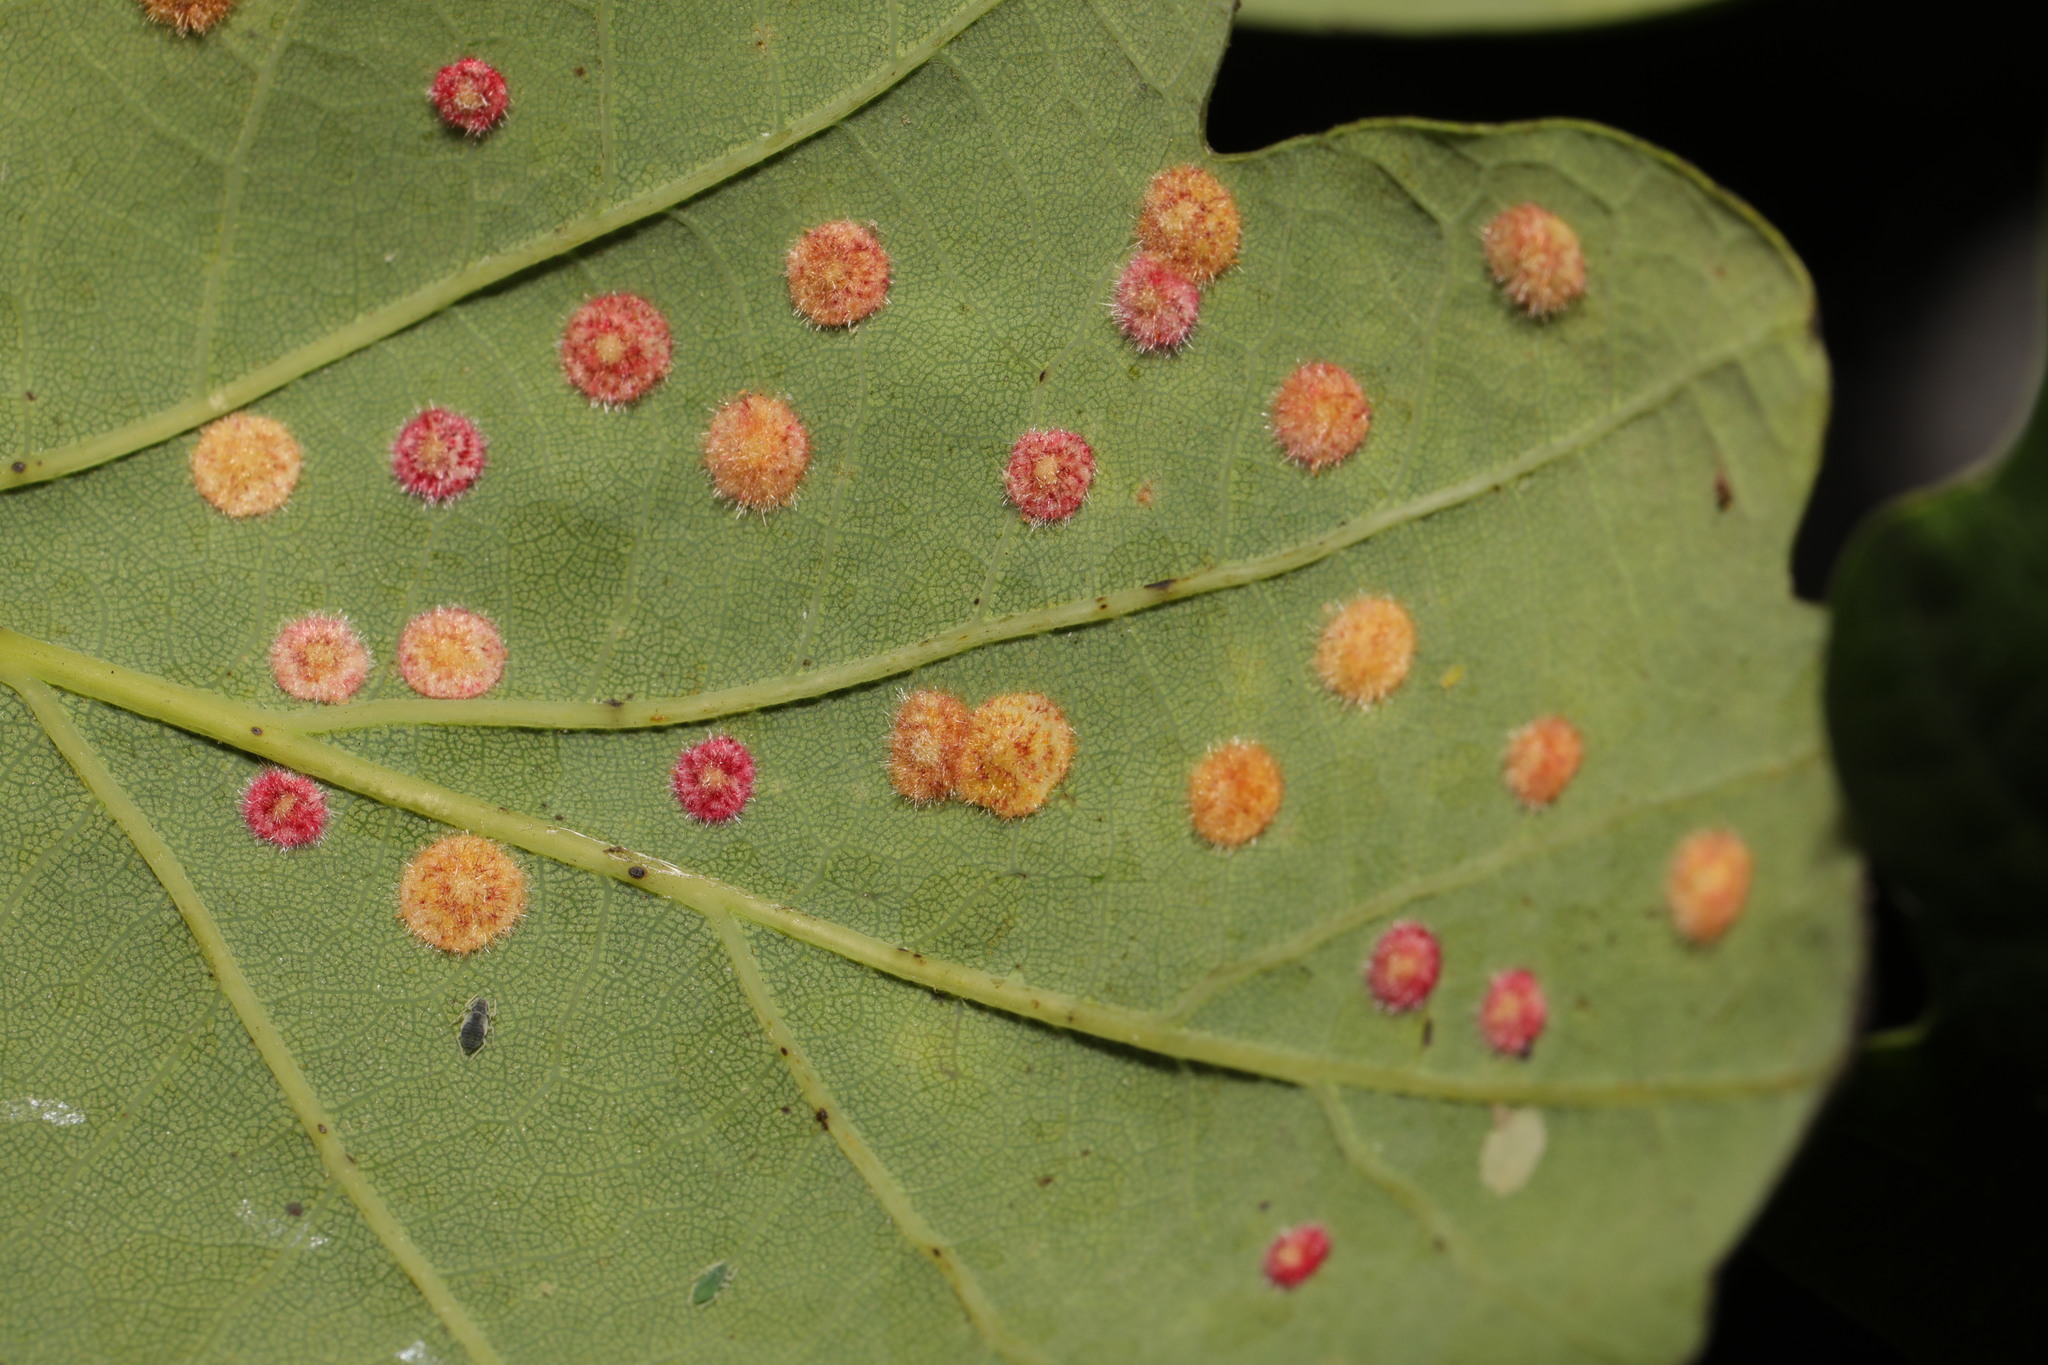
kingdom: Animalia
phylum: Arthropoda
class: Insecta
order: Hymenoptera
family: Cynipidae
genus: Neuroterus
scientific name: Neuroterus quercusbaccarum
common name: Common spangle gall
